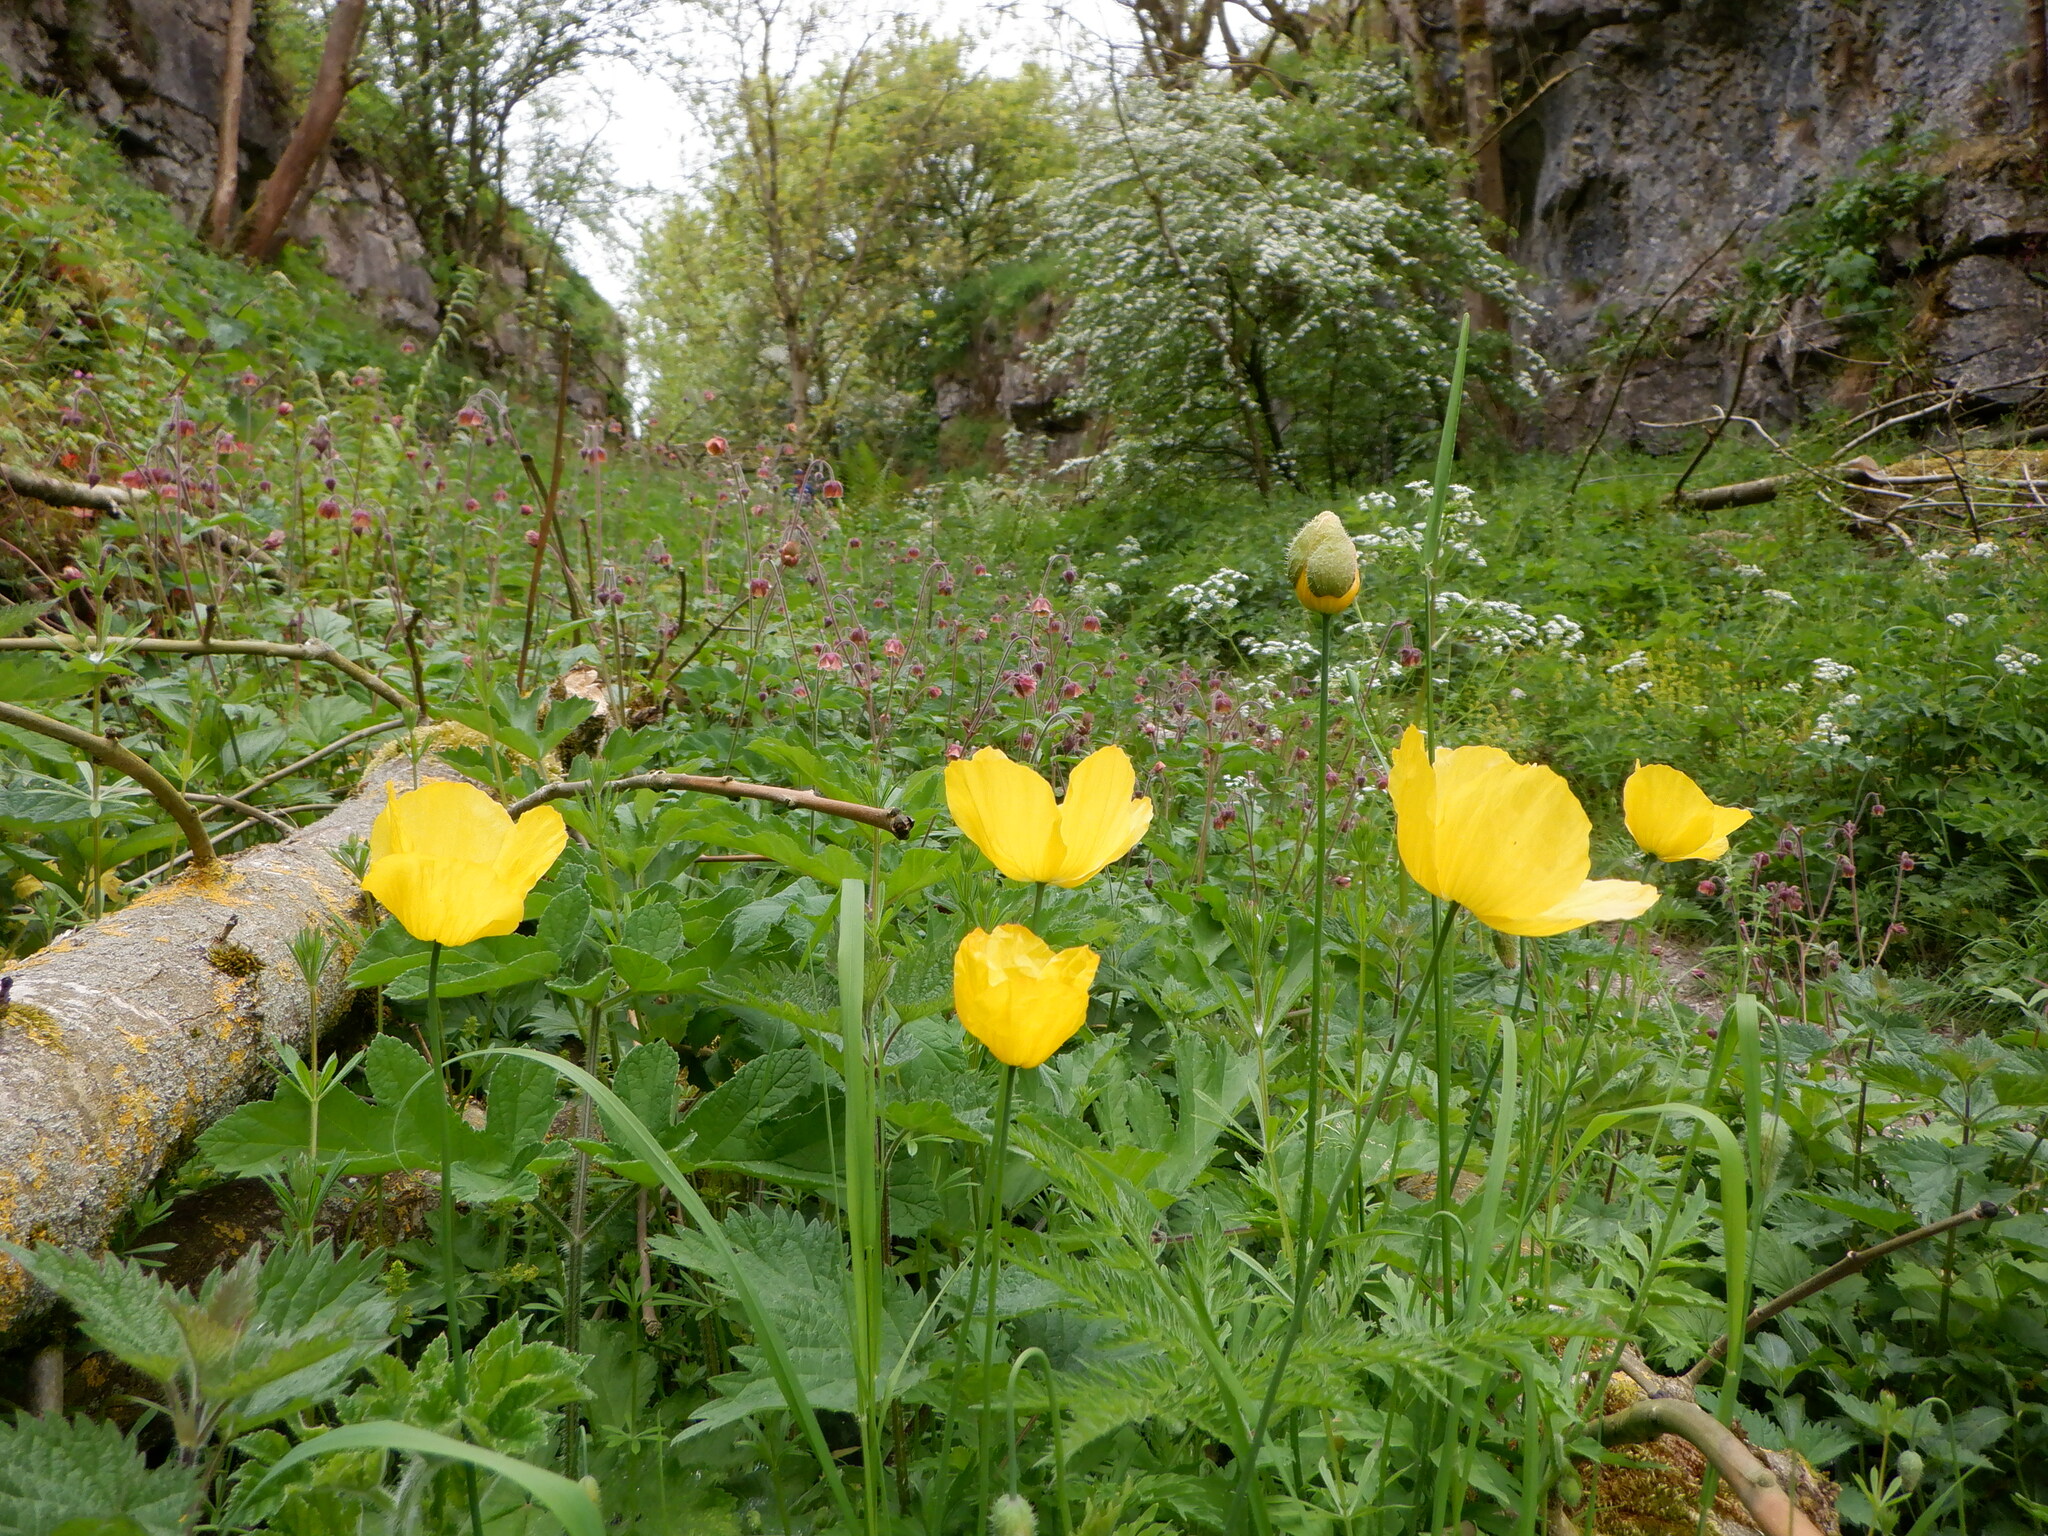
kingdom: Plantae
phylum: Tracheophyta
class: Magnoliopsida
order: Ranunculales
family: Papaveraceae
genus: Papaver
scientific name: Papaver cambricum
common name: Poppy
